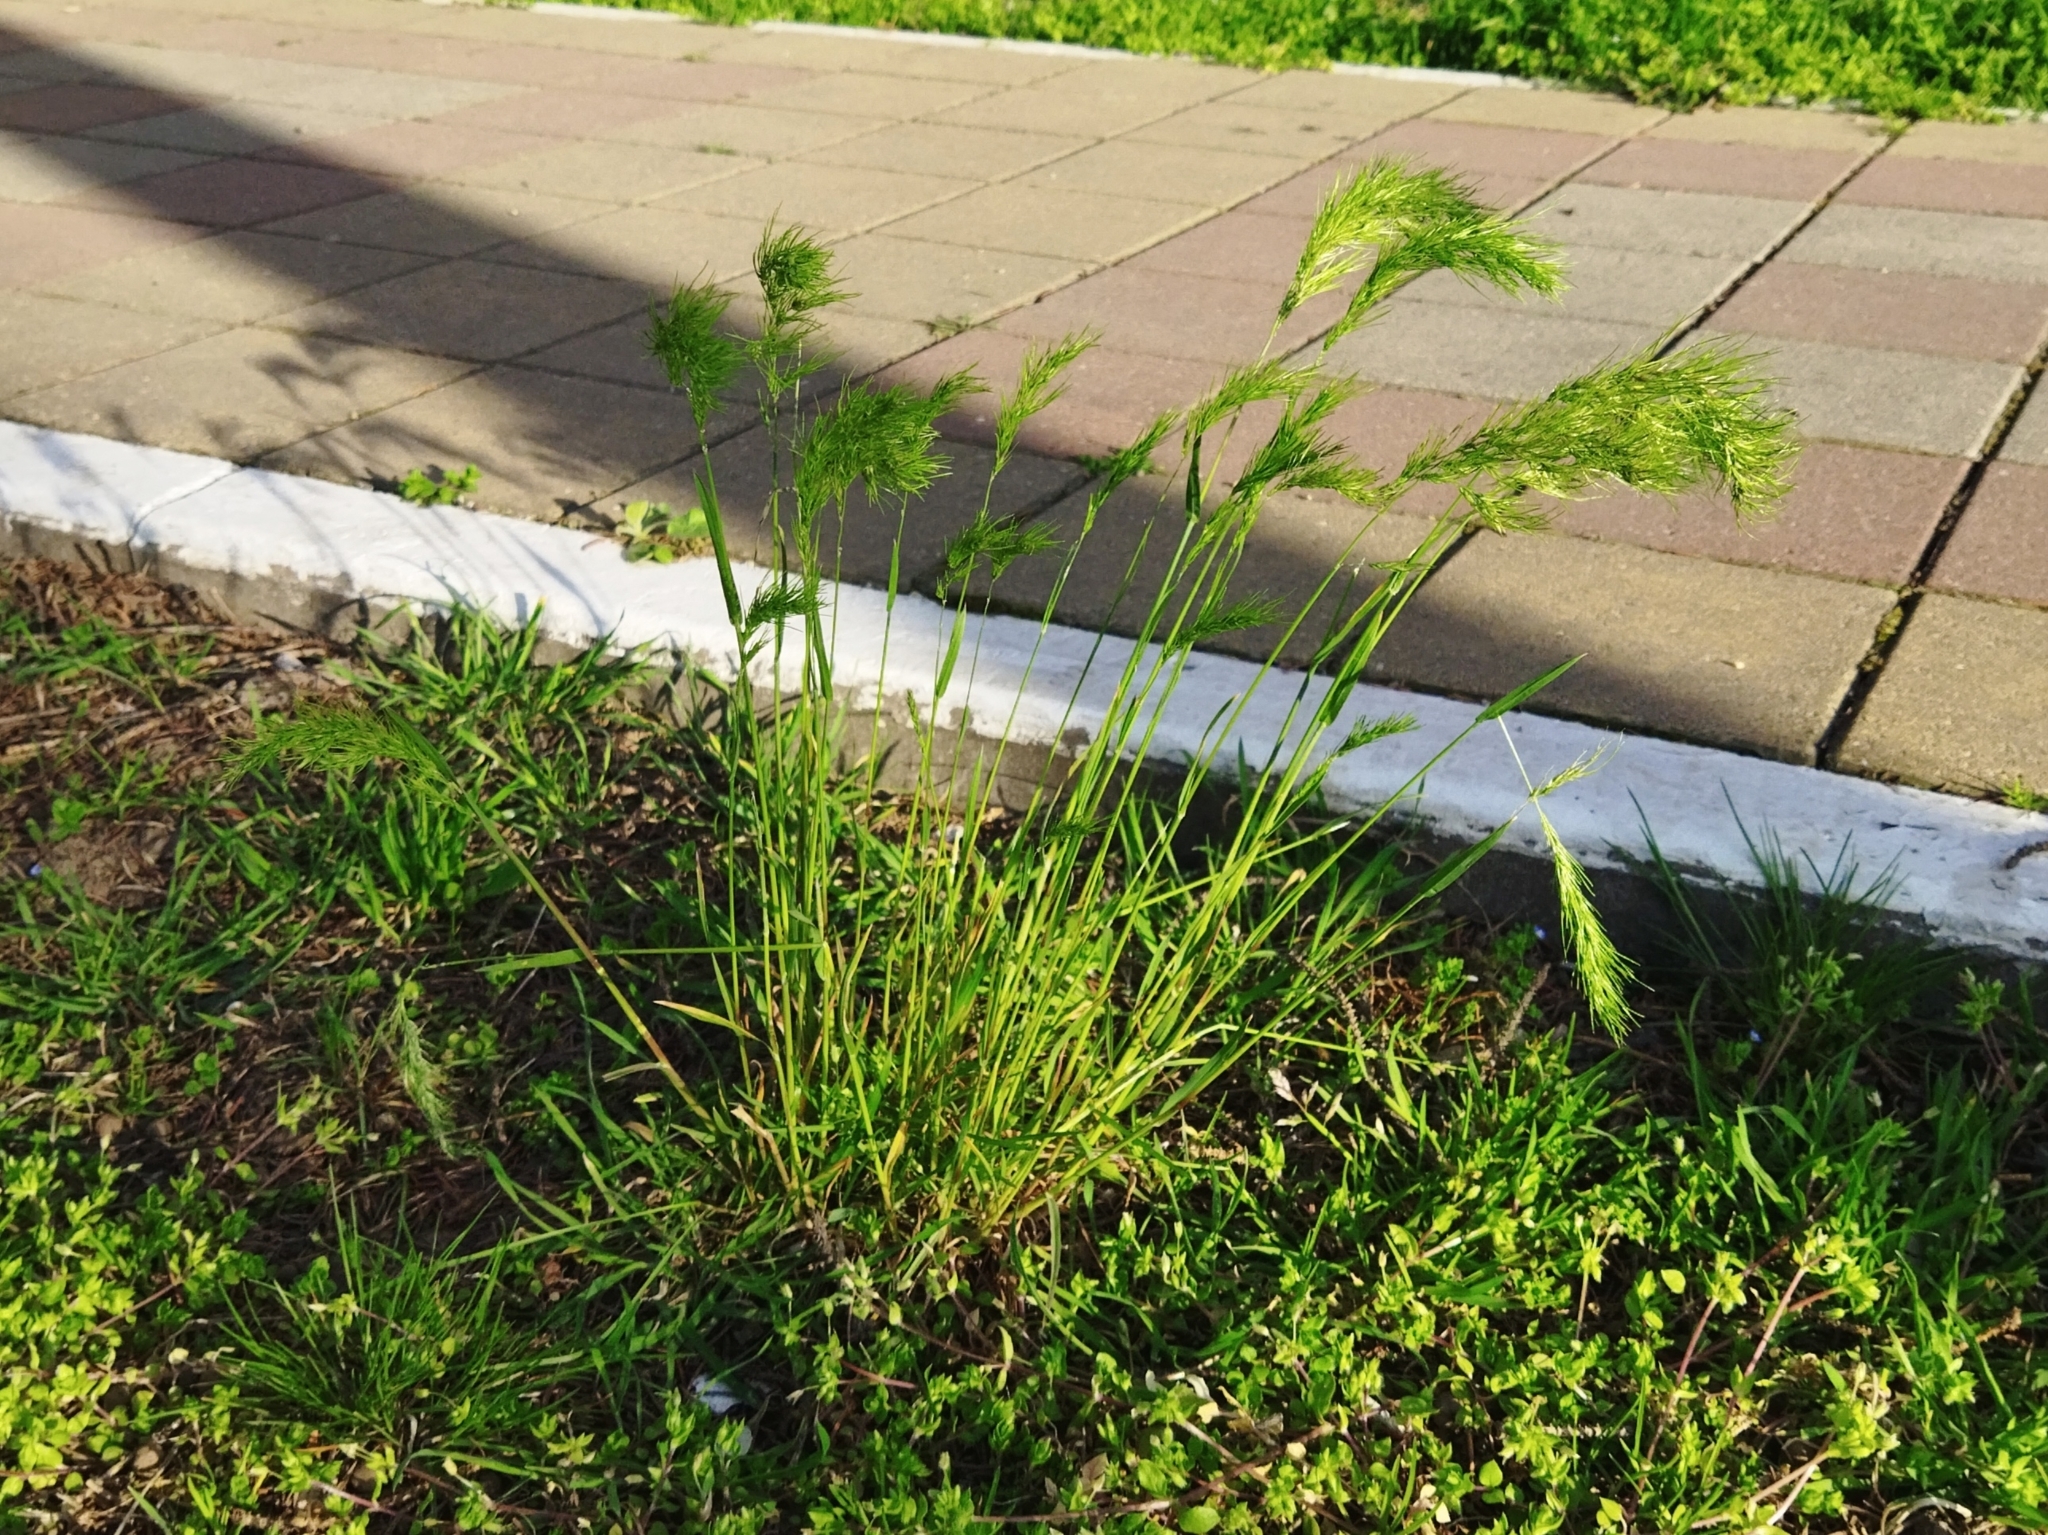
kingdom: Plantae
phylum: Tracheophyta
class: Liliopsida
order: Poales
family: Poaceae
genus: Poa
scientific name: Poa bulbosa
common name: Bulbous bluegrass
